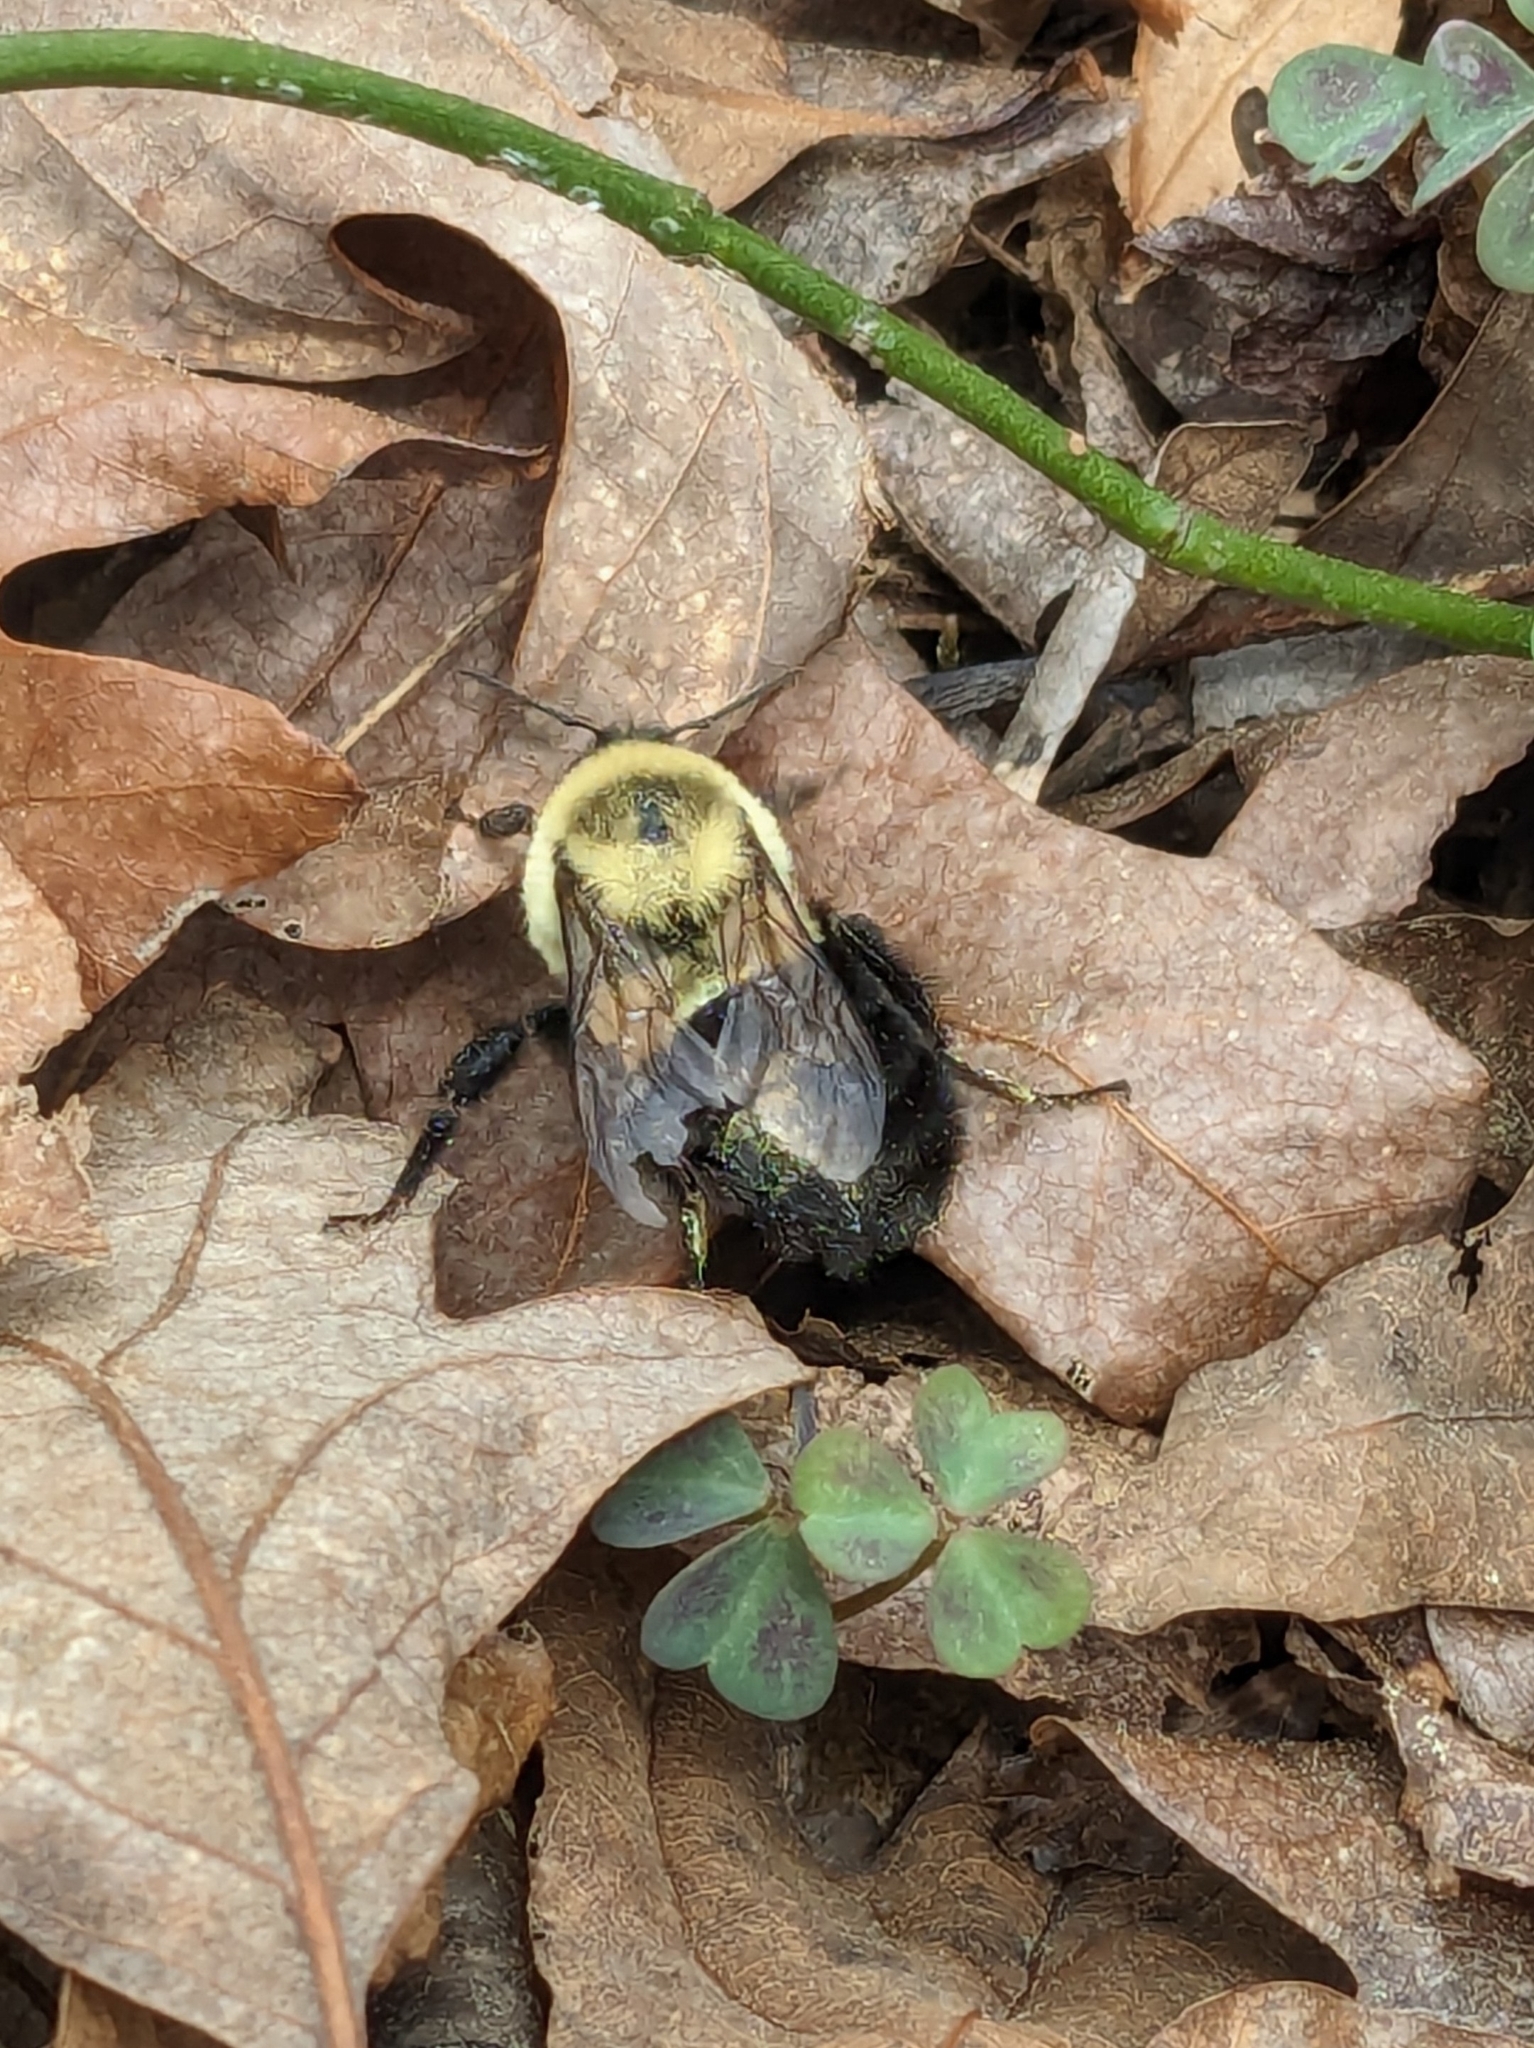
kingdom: Animalia
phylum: Arthropoda
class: Insecta
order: Hymenoptera
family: Apidae
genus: Bombus
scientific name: Bombus impatiens
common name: Common eastern bumble bee
